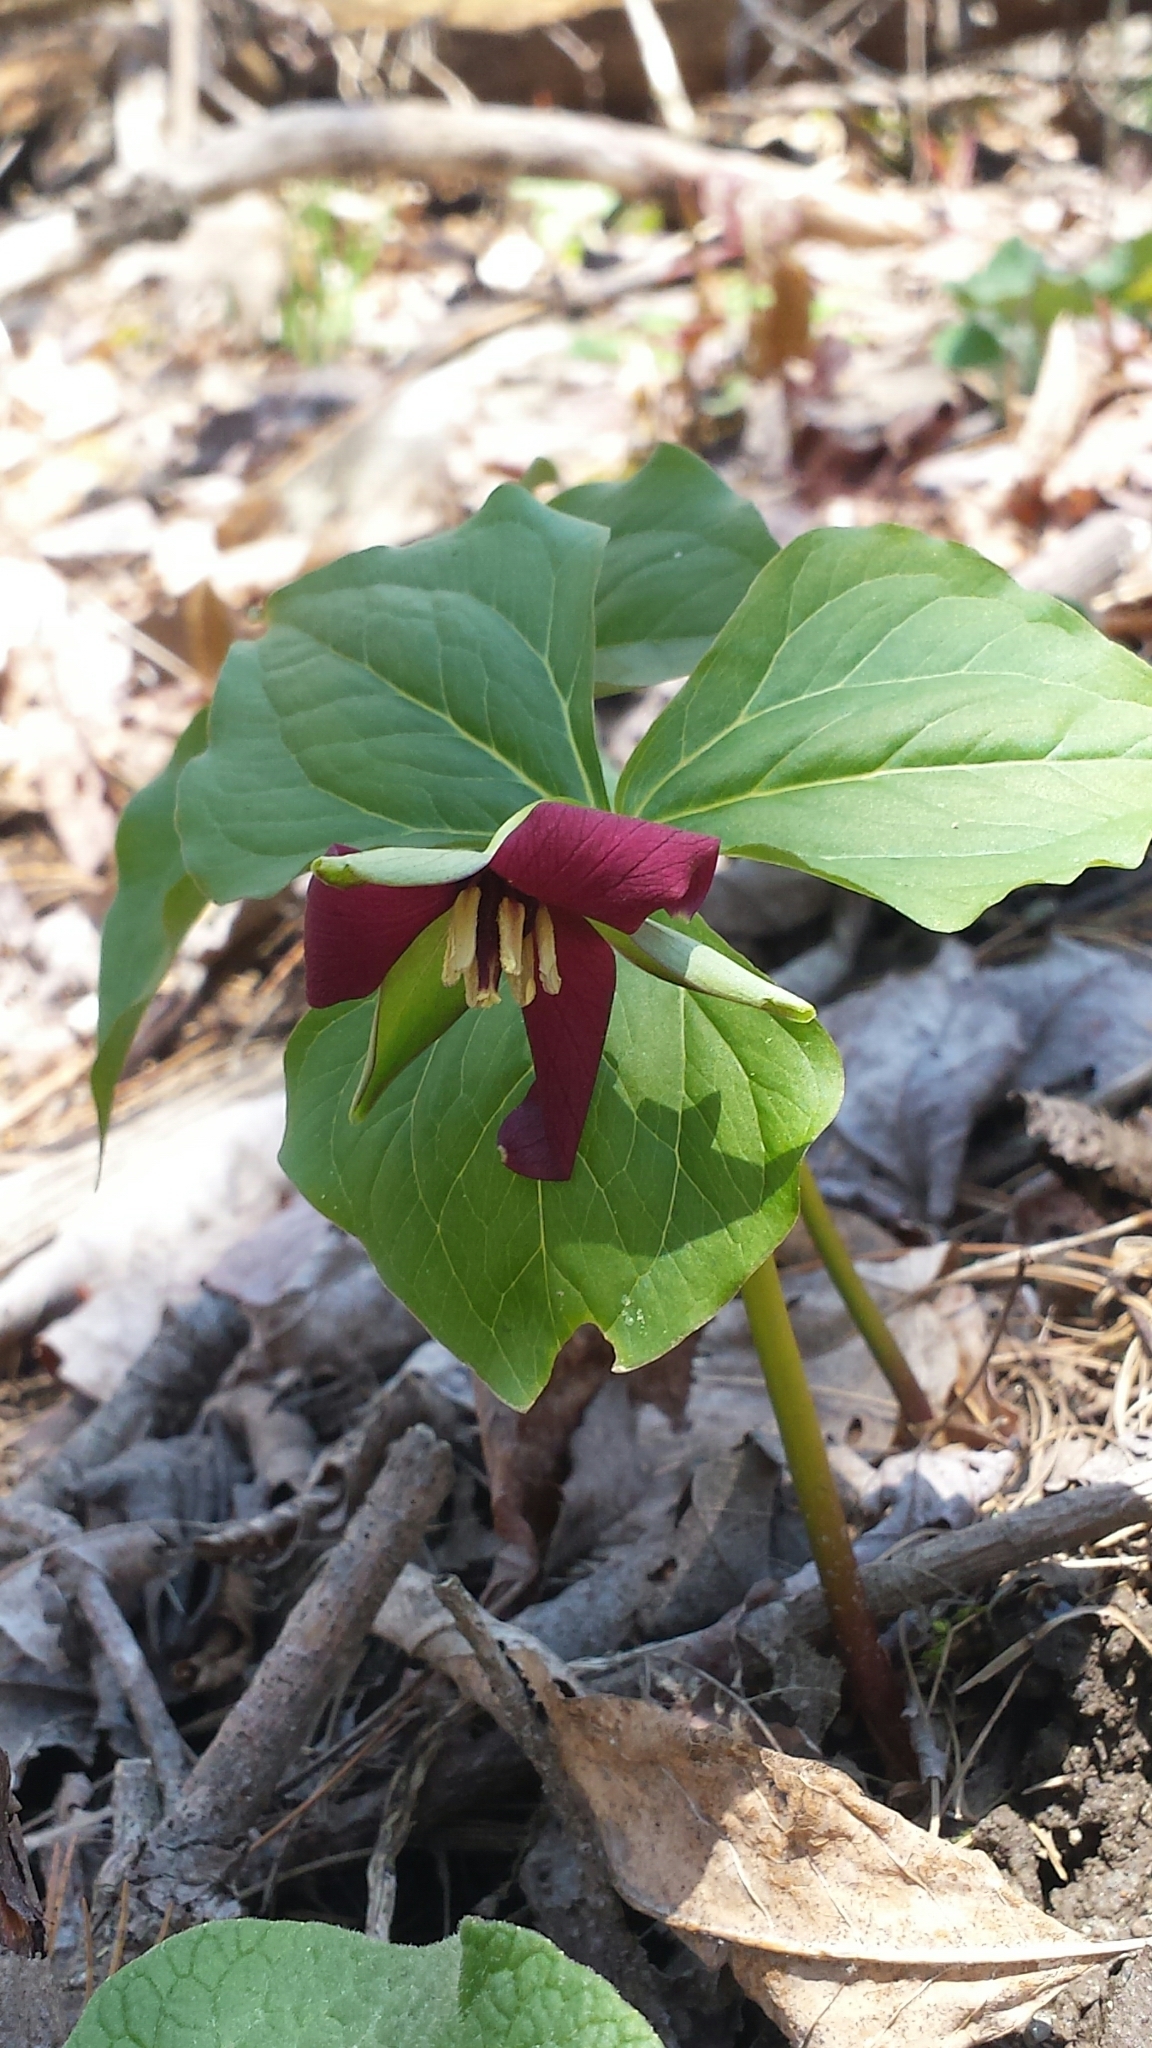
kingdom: Plantae
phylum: Tracheophyta
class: Liliopsida
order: Liliales
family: Melanthiaceae
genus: Trillium
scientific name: Trillium erectum
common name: Purple trillium
